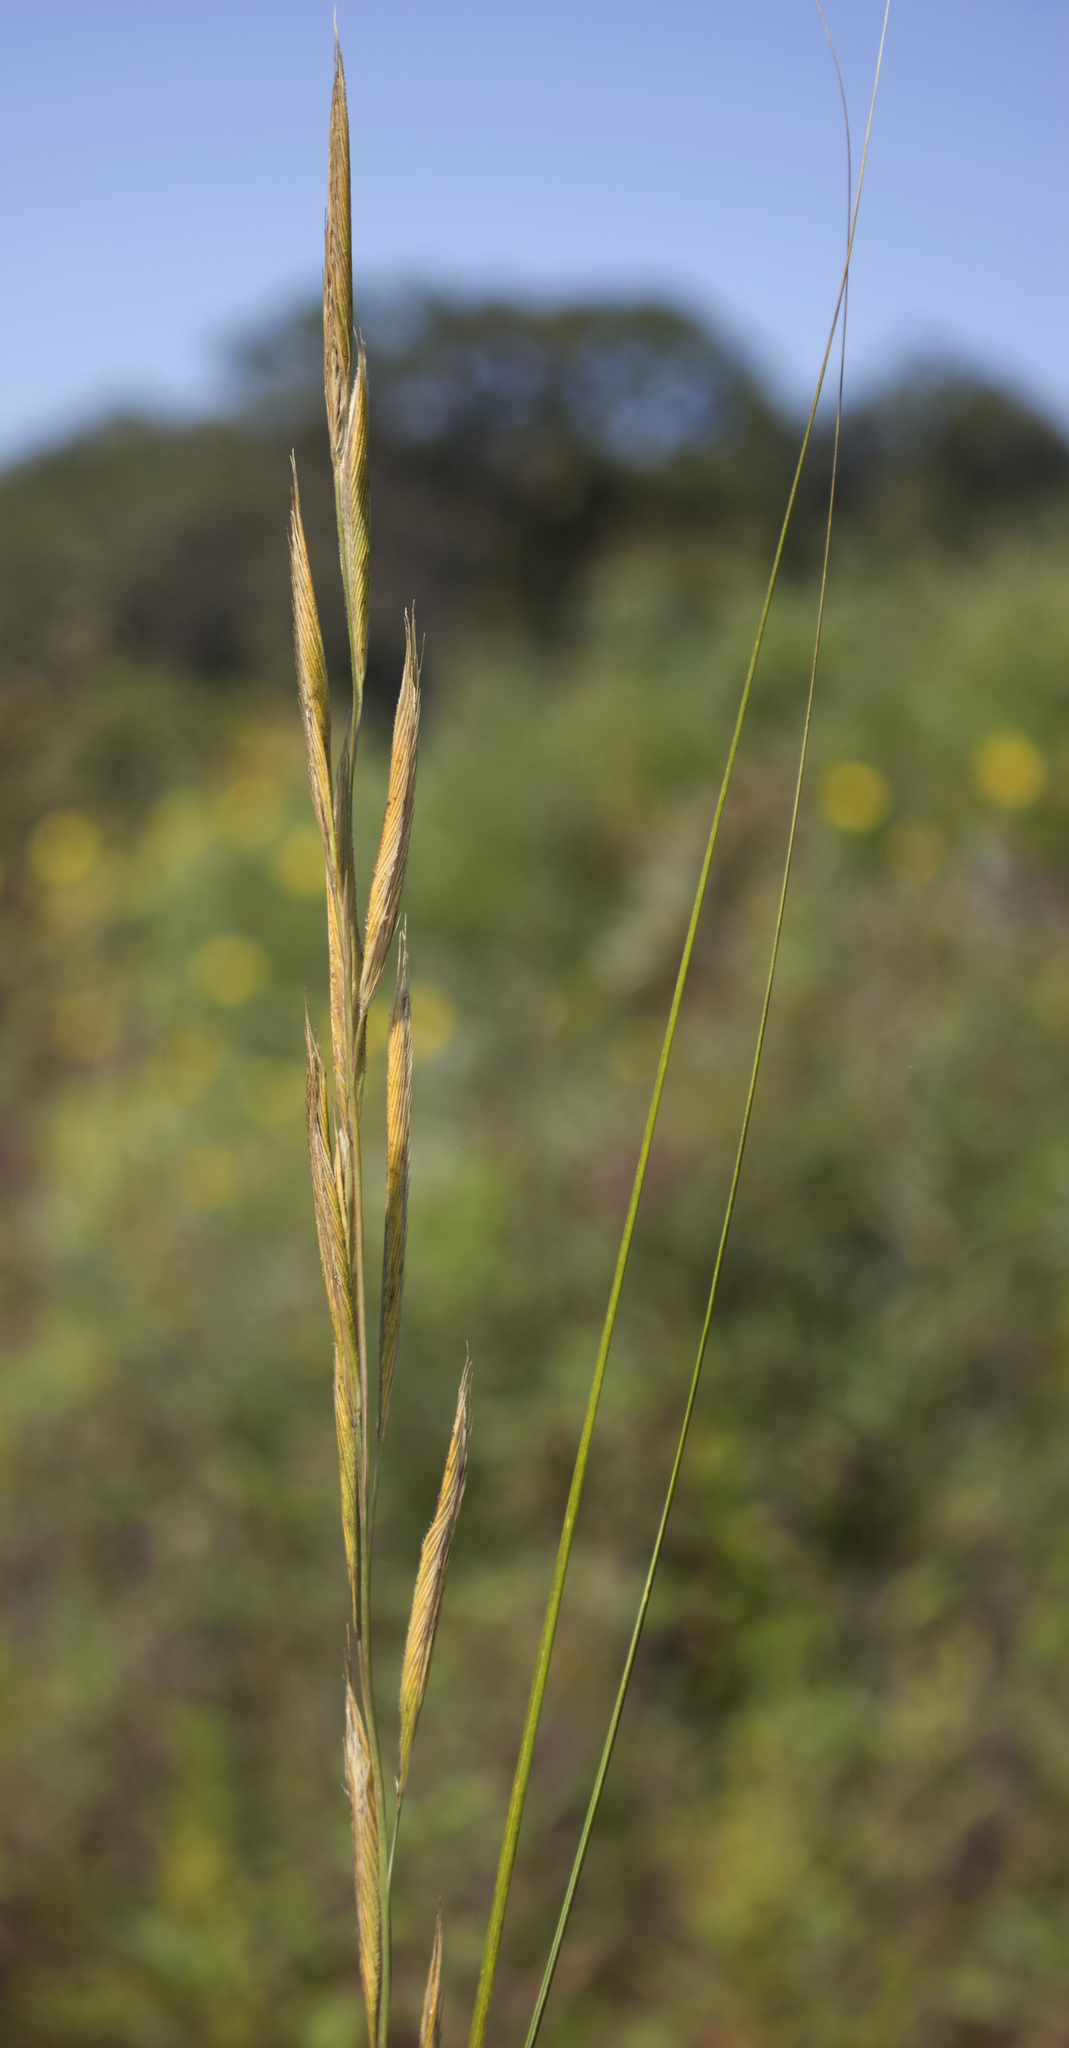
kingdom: Plantae
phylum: Tracheophyta
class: Liliopsida
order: Poales
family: Poaceae
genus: Sporobolus
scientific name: Sporobolus michauxianus
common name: Freshwater cordgrass
